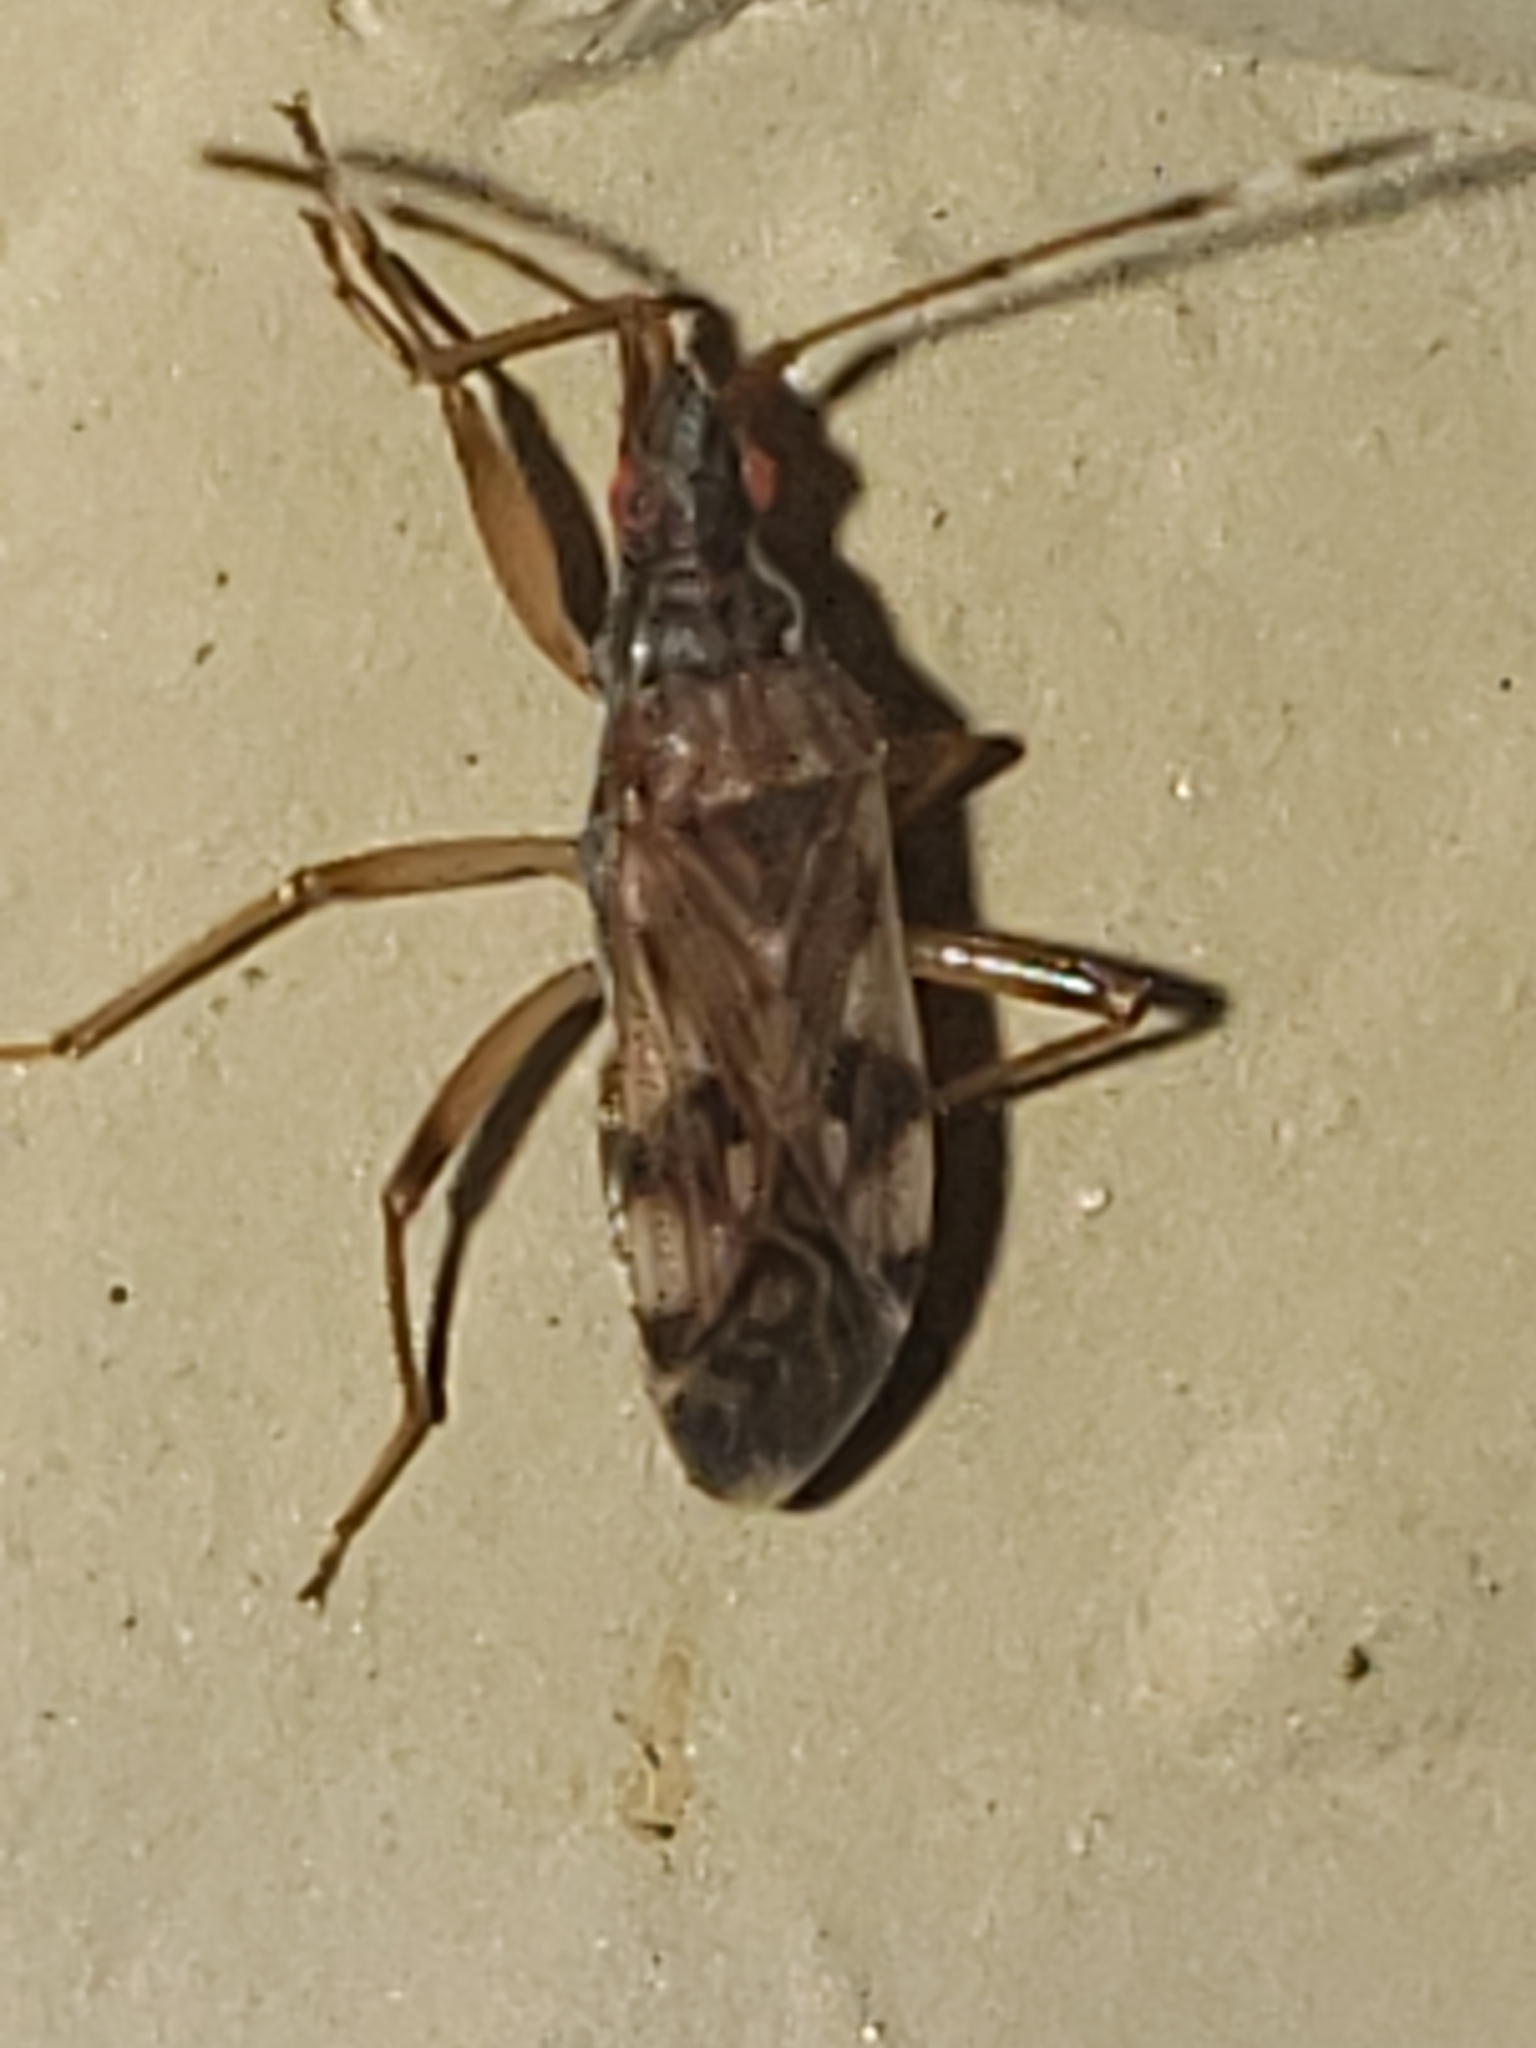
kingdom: Animalia
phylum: Arthropoda
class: Insecta
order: Hemiptera
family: Rhyparochromidae
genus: Ozophora
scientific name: Ozophora picturata
